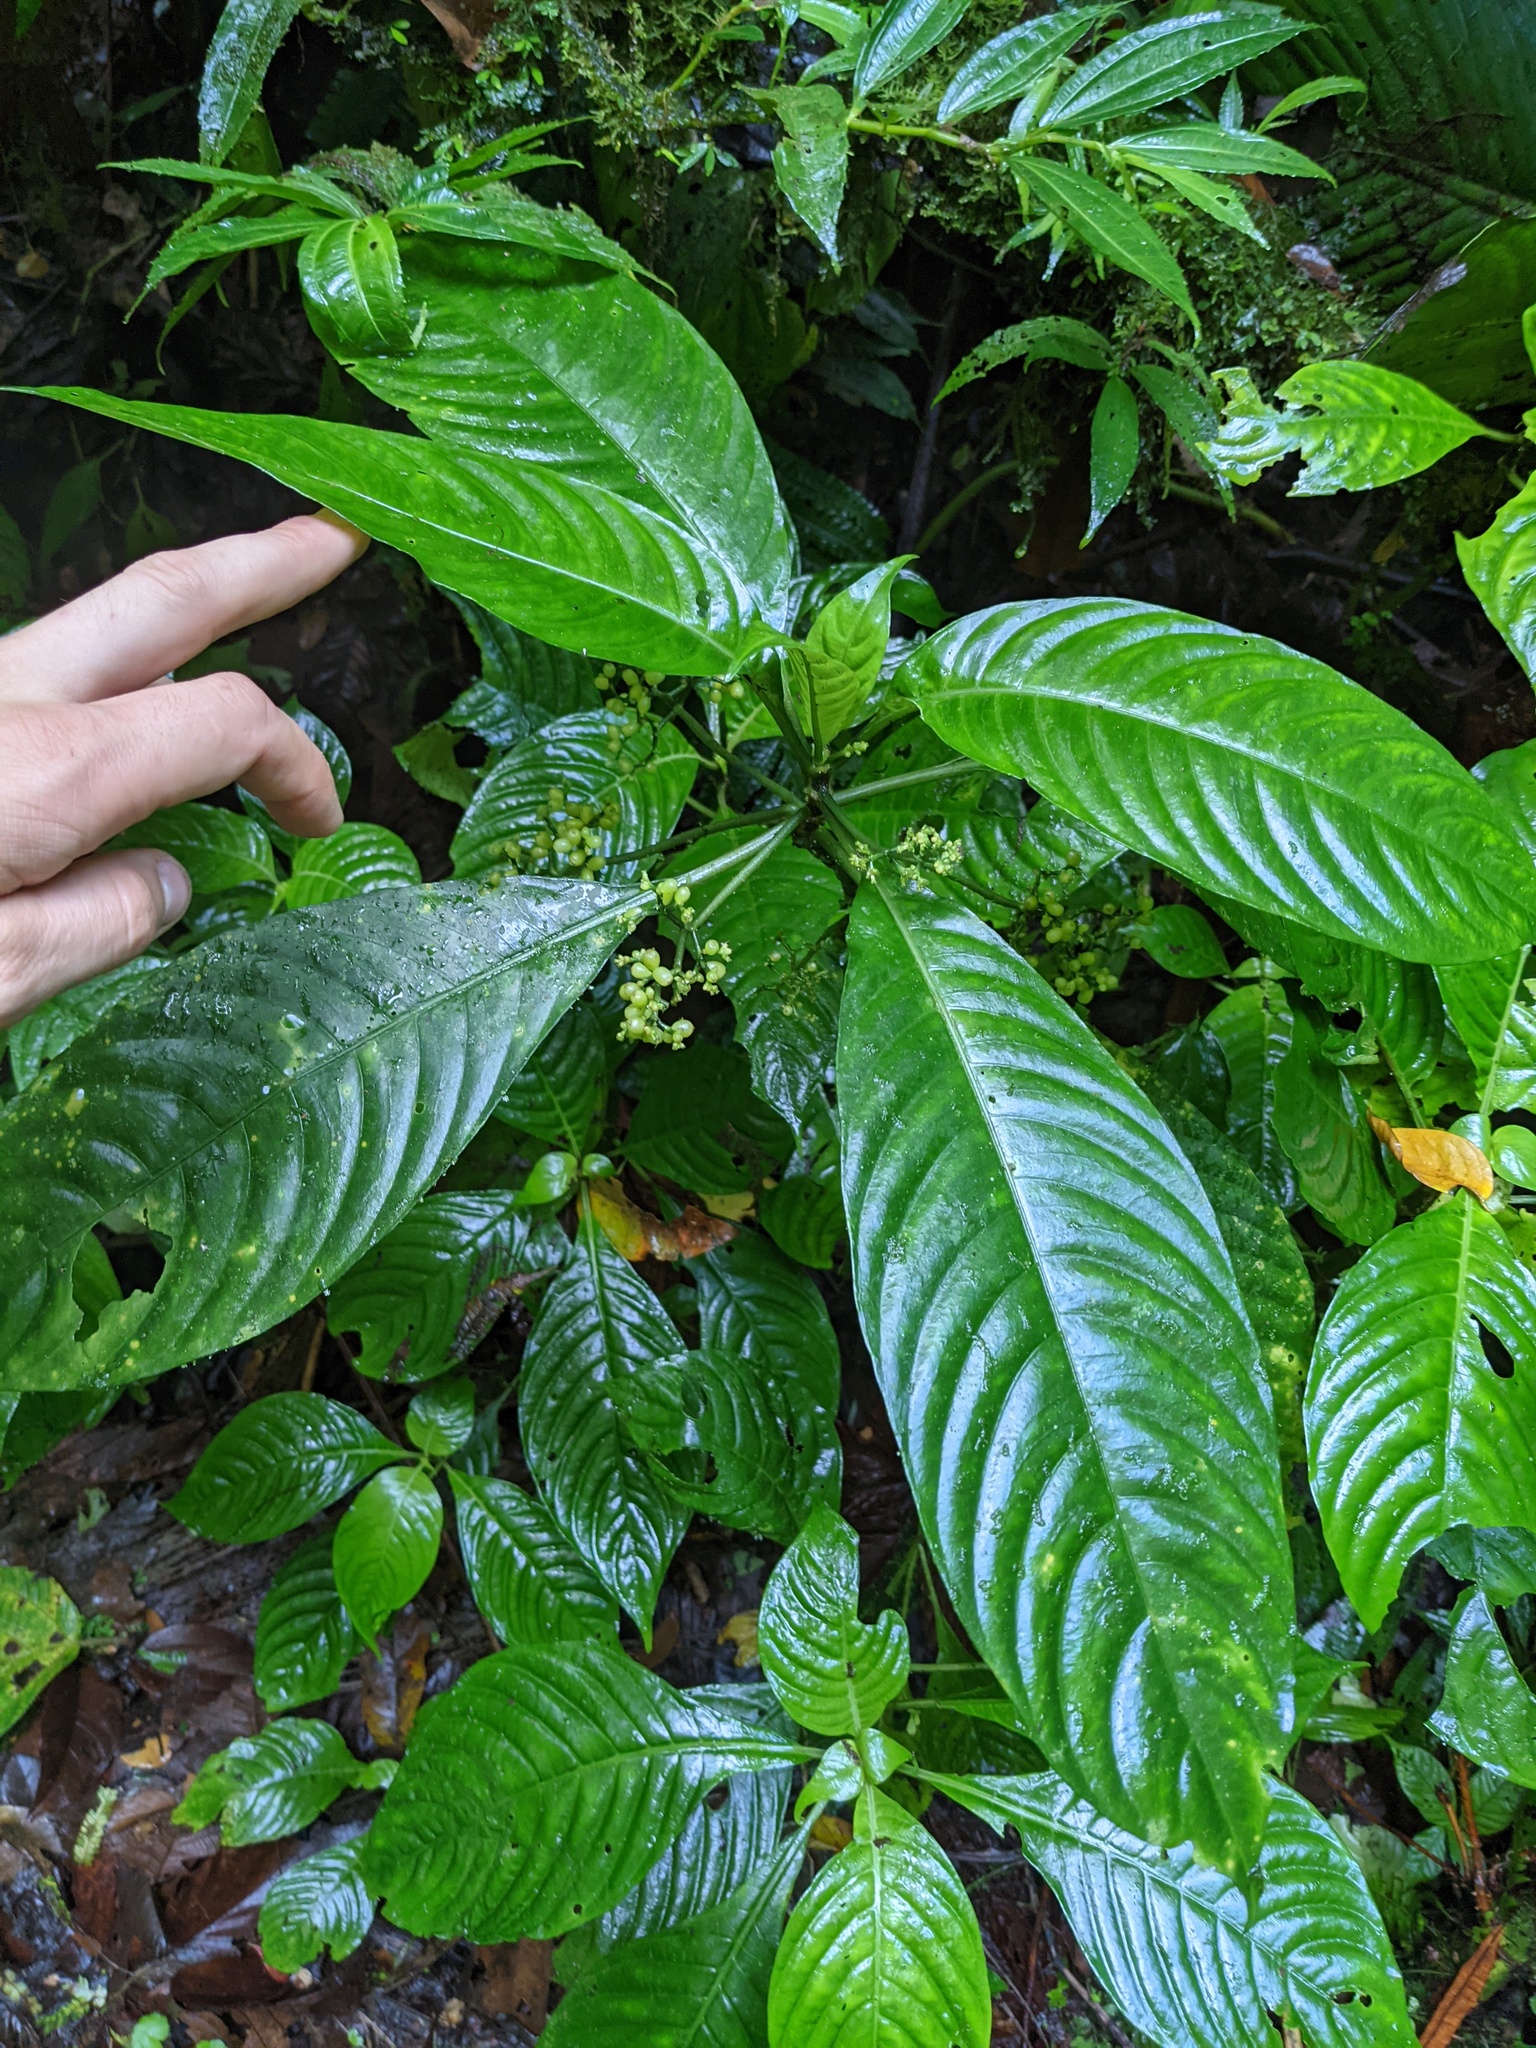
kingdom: Plantae
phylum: Tracheophyta
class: Magnoliopsida
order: Gentianales
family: Rubiaceae
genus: Notopleura
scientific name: Notopleura anomothyrsa
